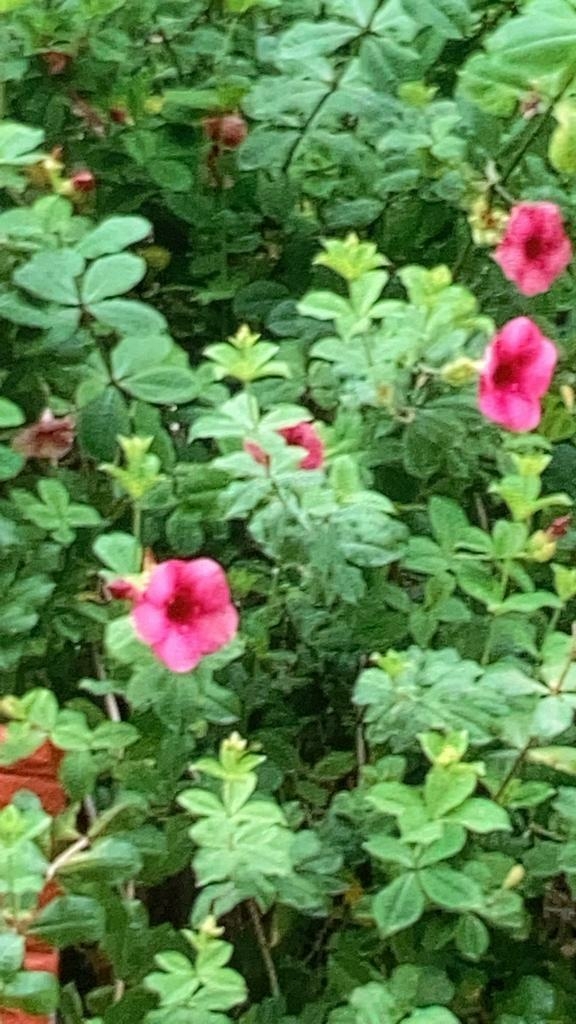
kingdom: Plantae
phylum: Tracheophyta
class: Magnoliopsida
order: Gentianales
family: Apocynaceae
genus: Allamanda
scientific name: Allamanda blanchetii
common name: Purple allamanda
